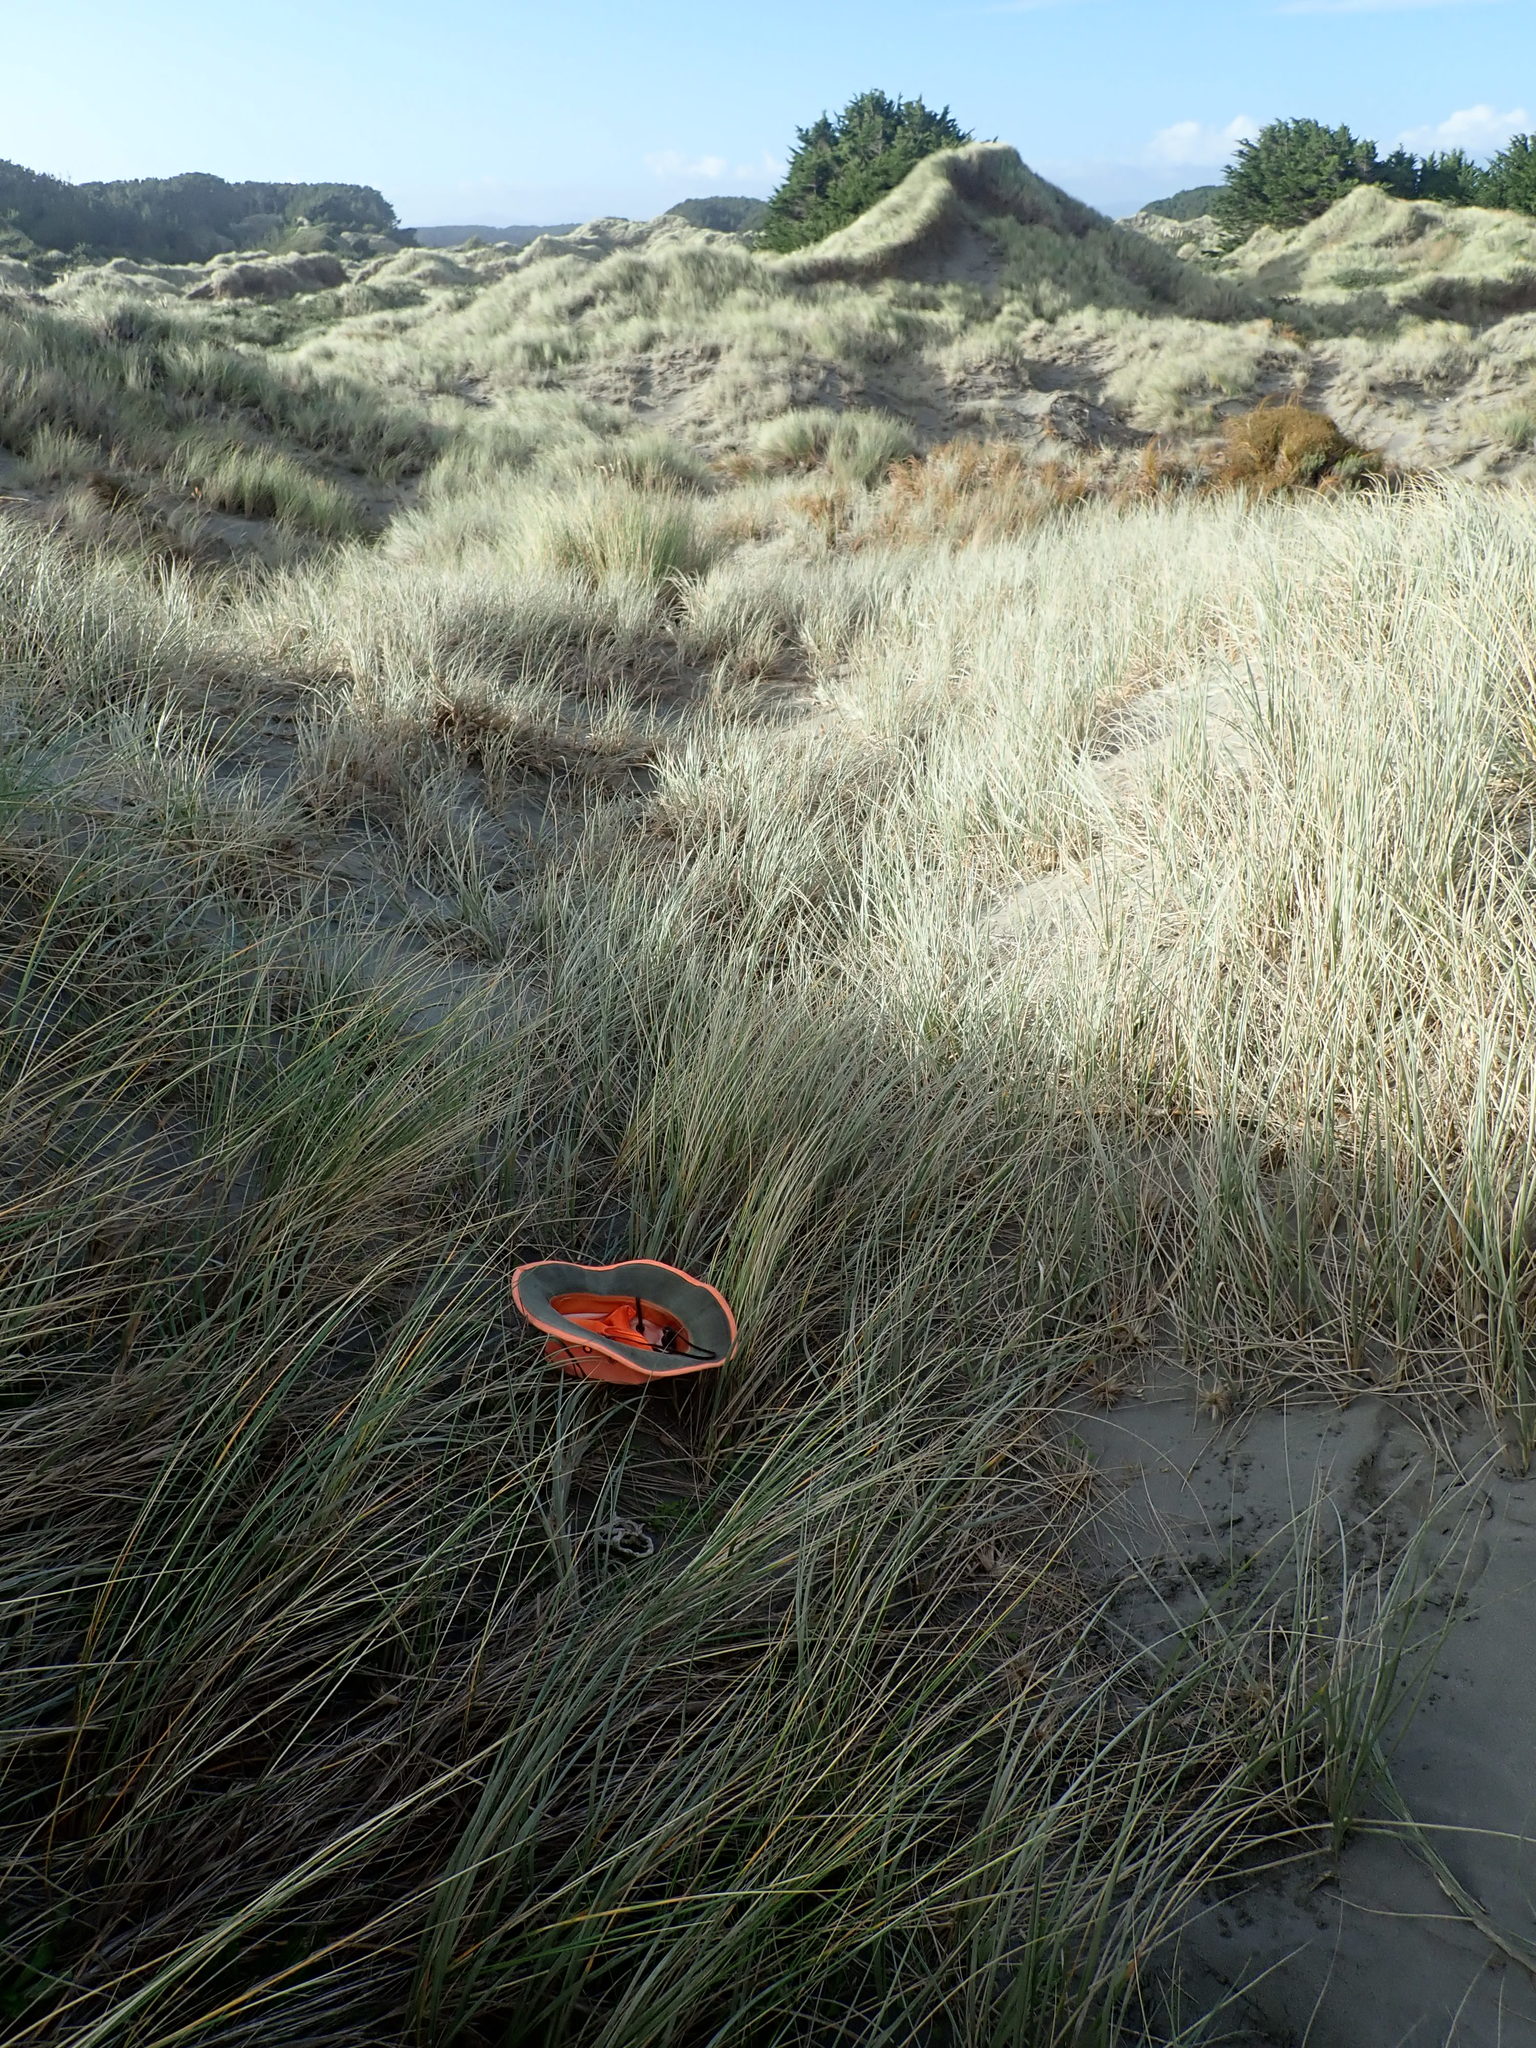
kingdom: Fungi
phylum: Basidiomycota
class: Agaricomycetes
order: Phallales
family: Phallaceae
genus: Ileodictyon
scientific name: Ileodictyon cibarium
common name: Basket fungus
